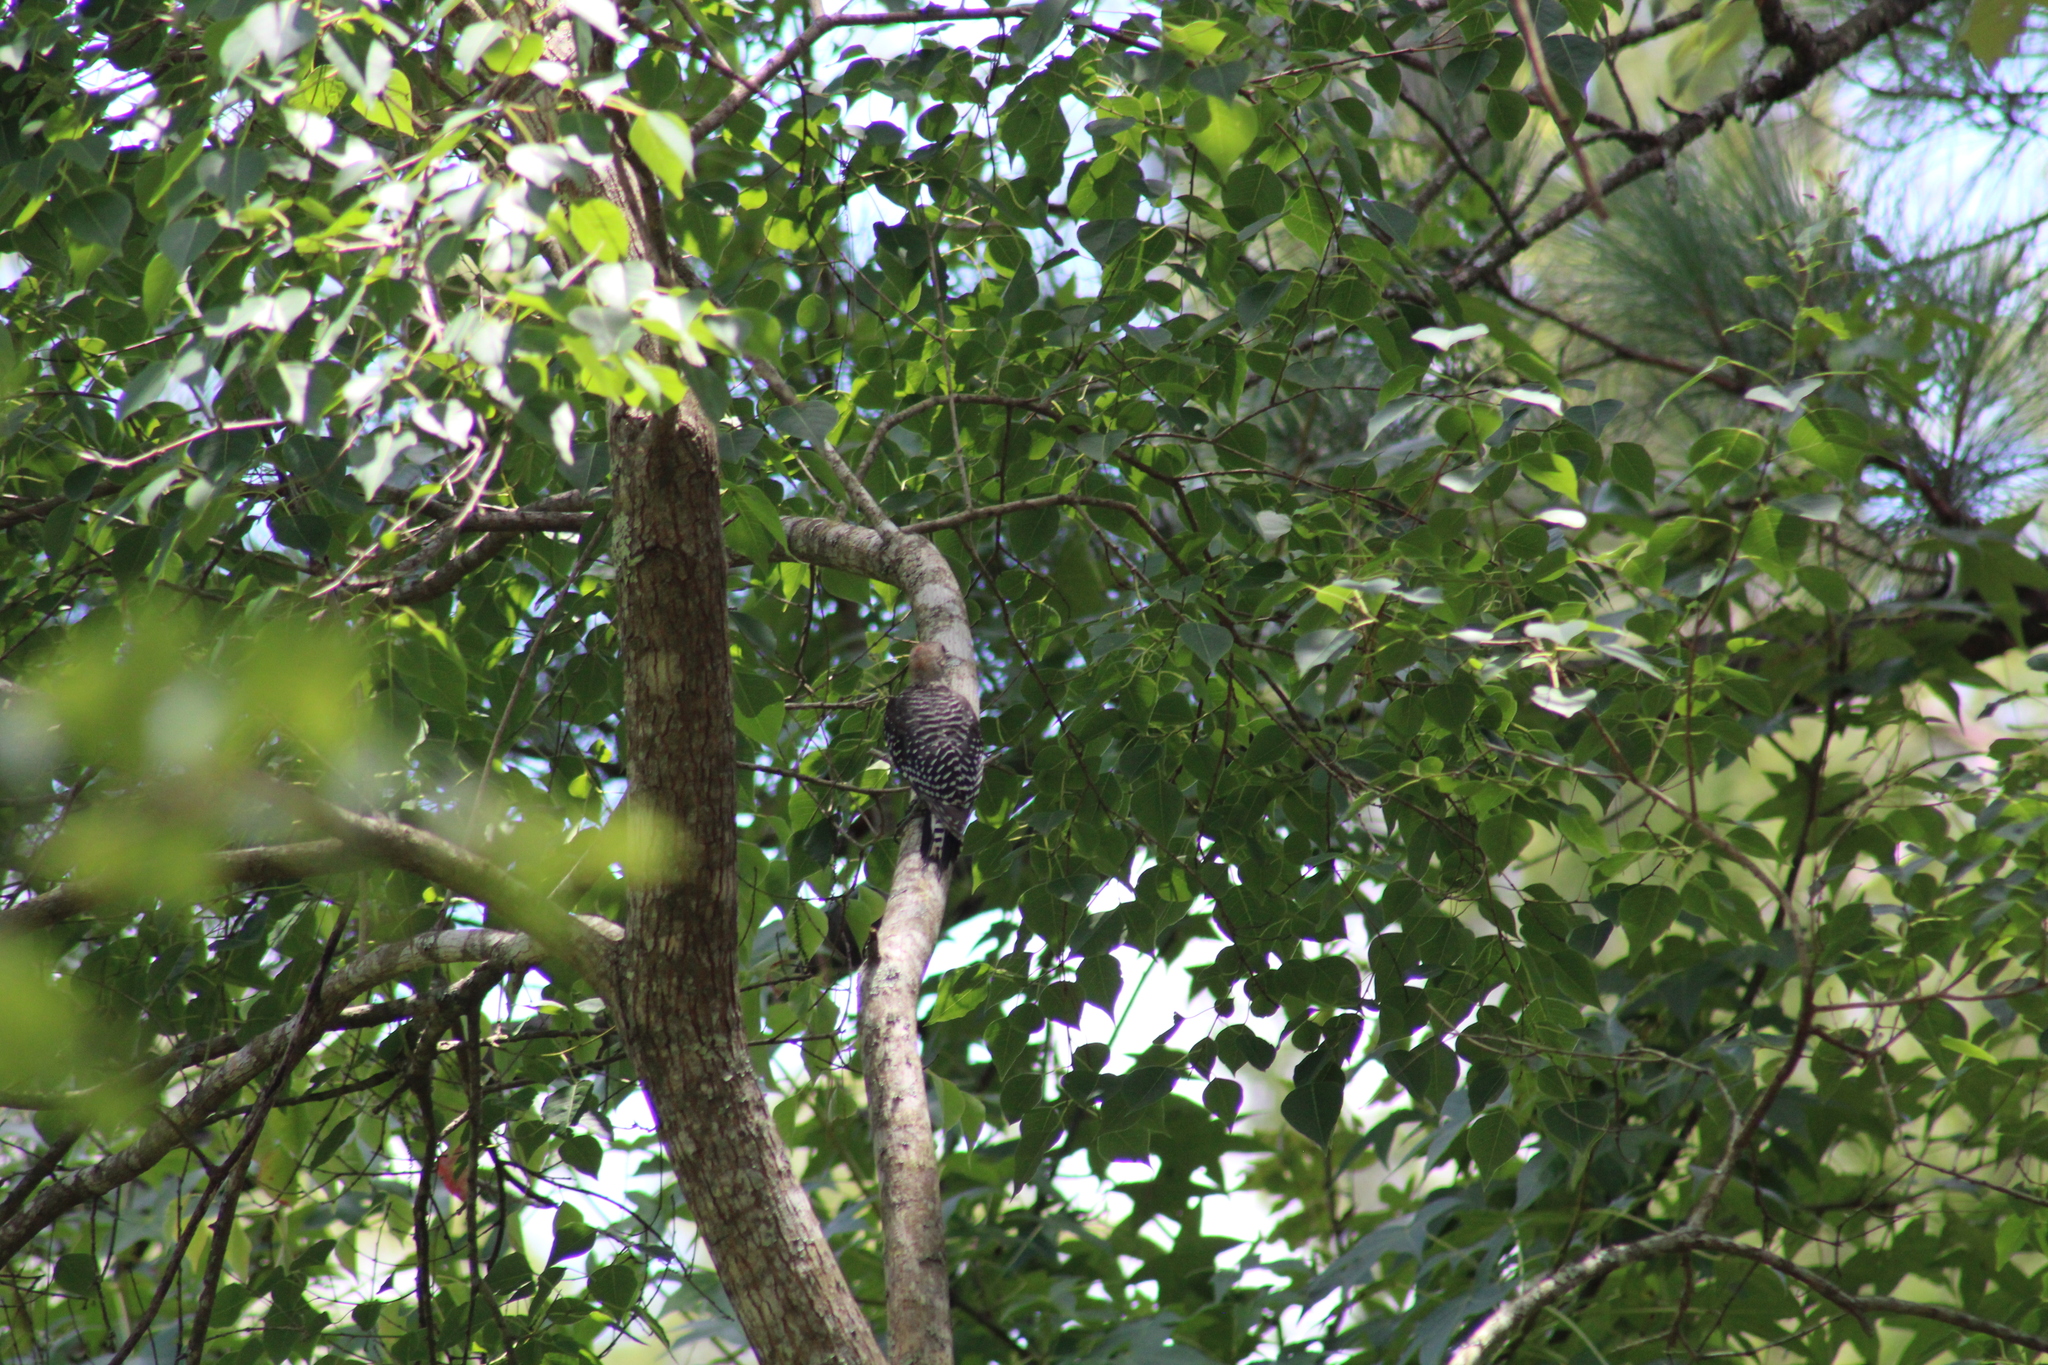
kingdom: Animalia
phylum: Chordata
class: Aves
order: Piciformes
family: Picidae
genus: Melanerpes
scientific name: Melanerpes carolinus
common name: Red-bellied woodpecker
